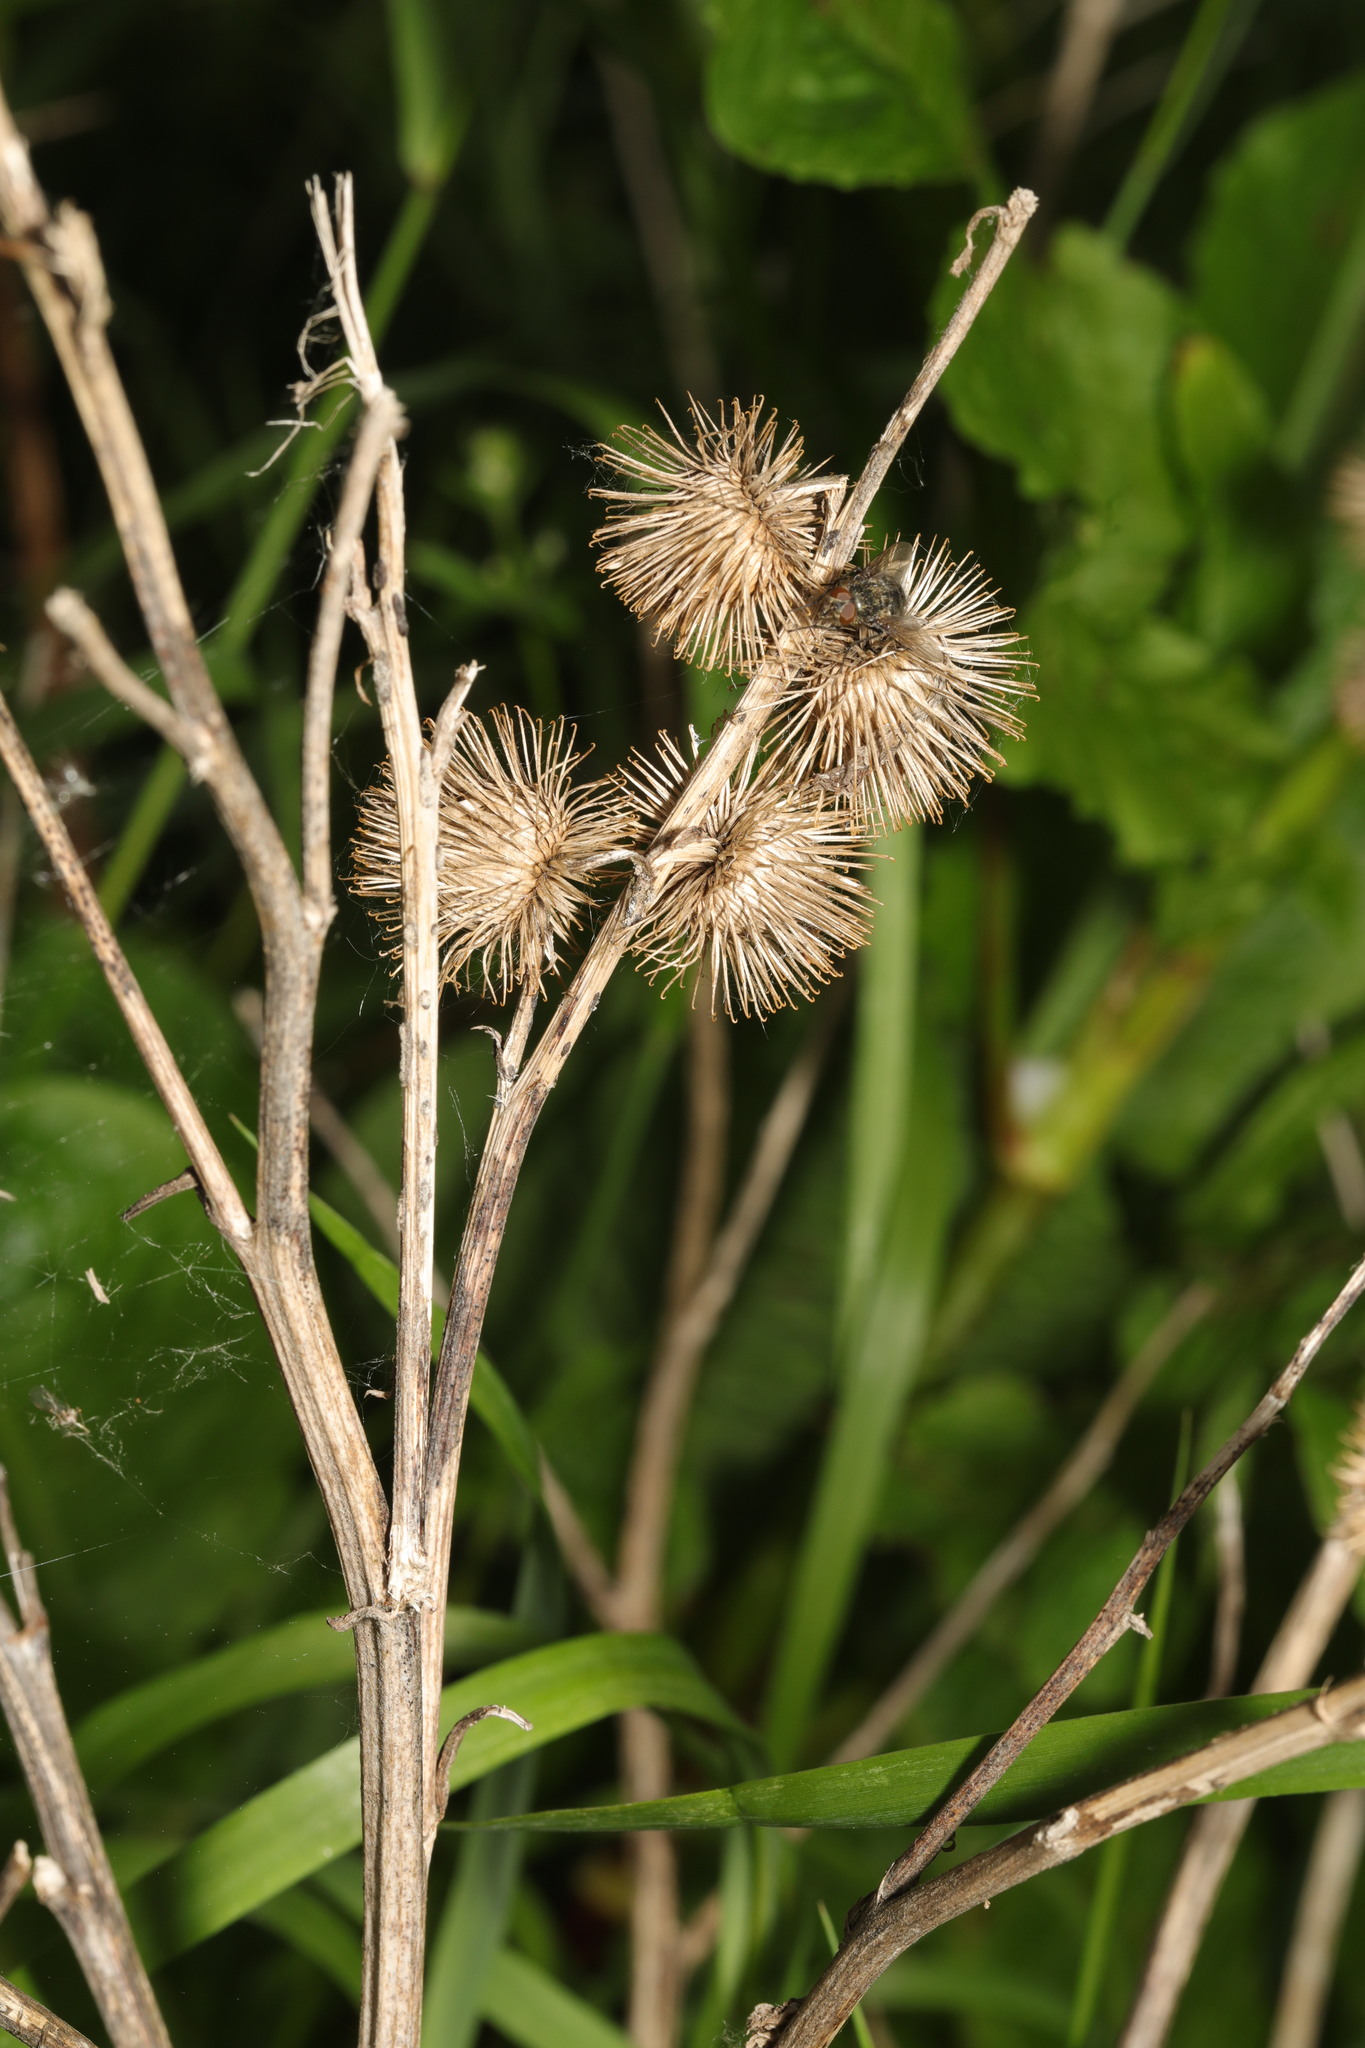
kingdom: Plantae
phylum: Tracheophyta
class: Magnoliopsida
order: Asterales
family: Asteraceae
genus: Arctium
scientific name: Arctium minus
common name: Lesser burdock
